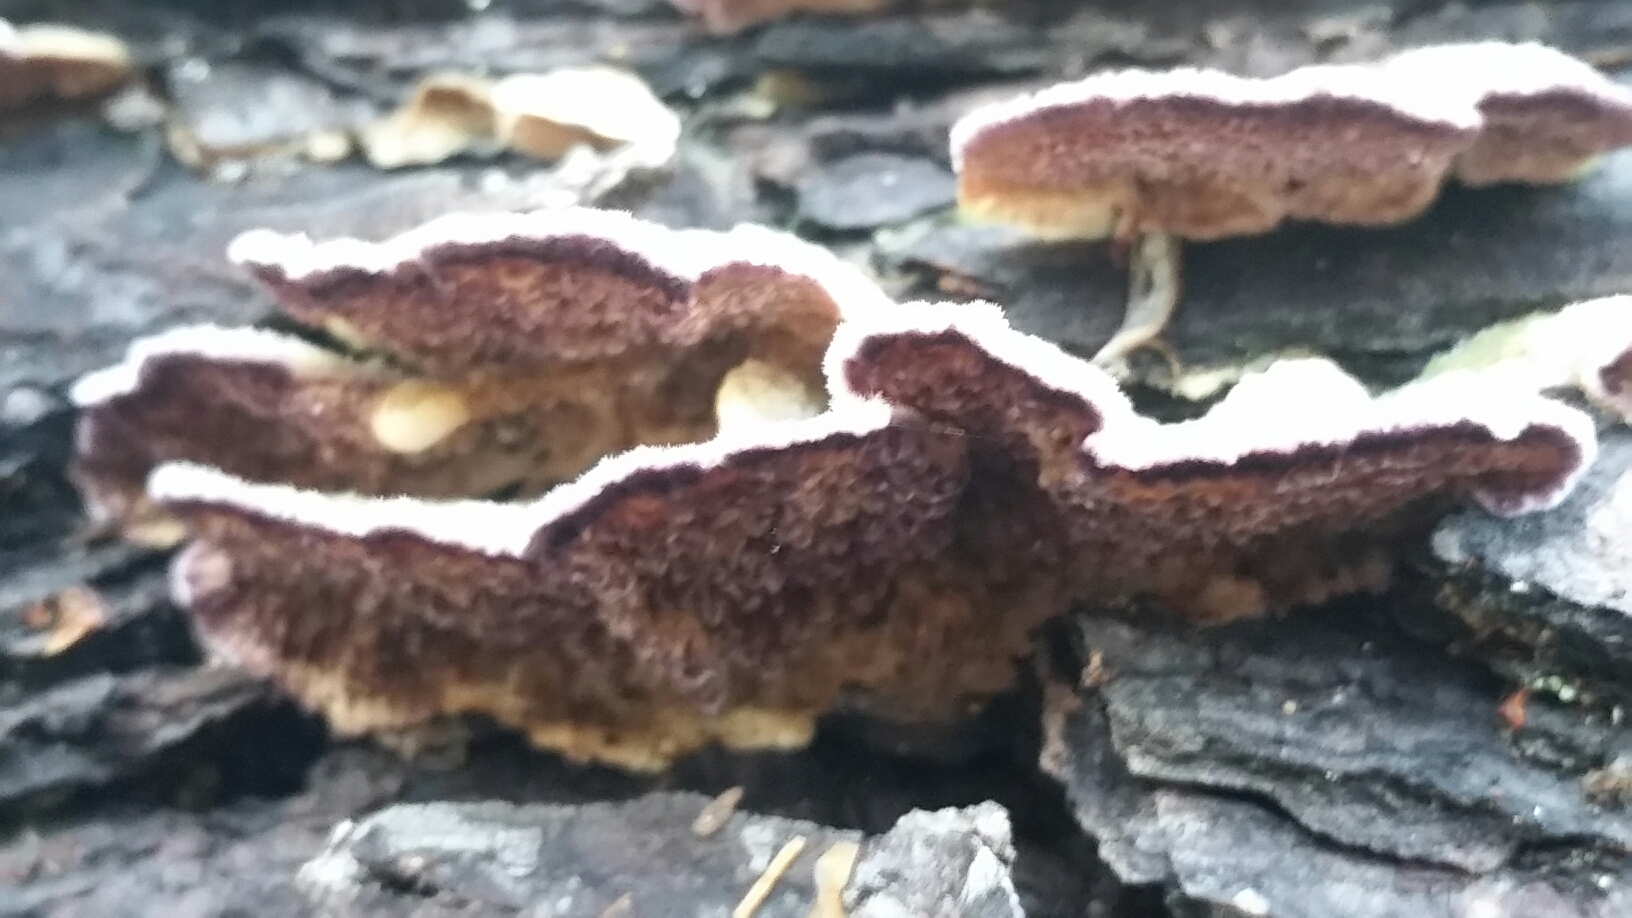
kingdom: Fungi
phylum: Basidiomycota
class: Agaricomycetes
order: Hymenochaetales
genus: Trichaptum
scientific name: Trichaptum fuscoviolaceum
